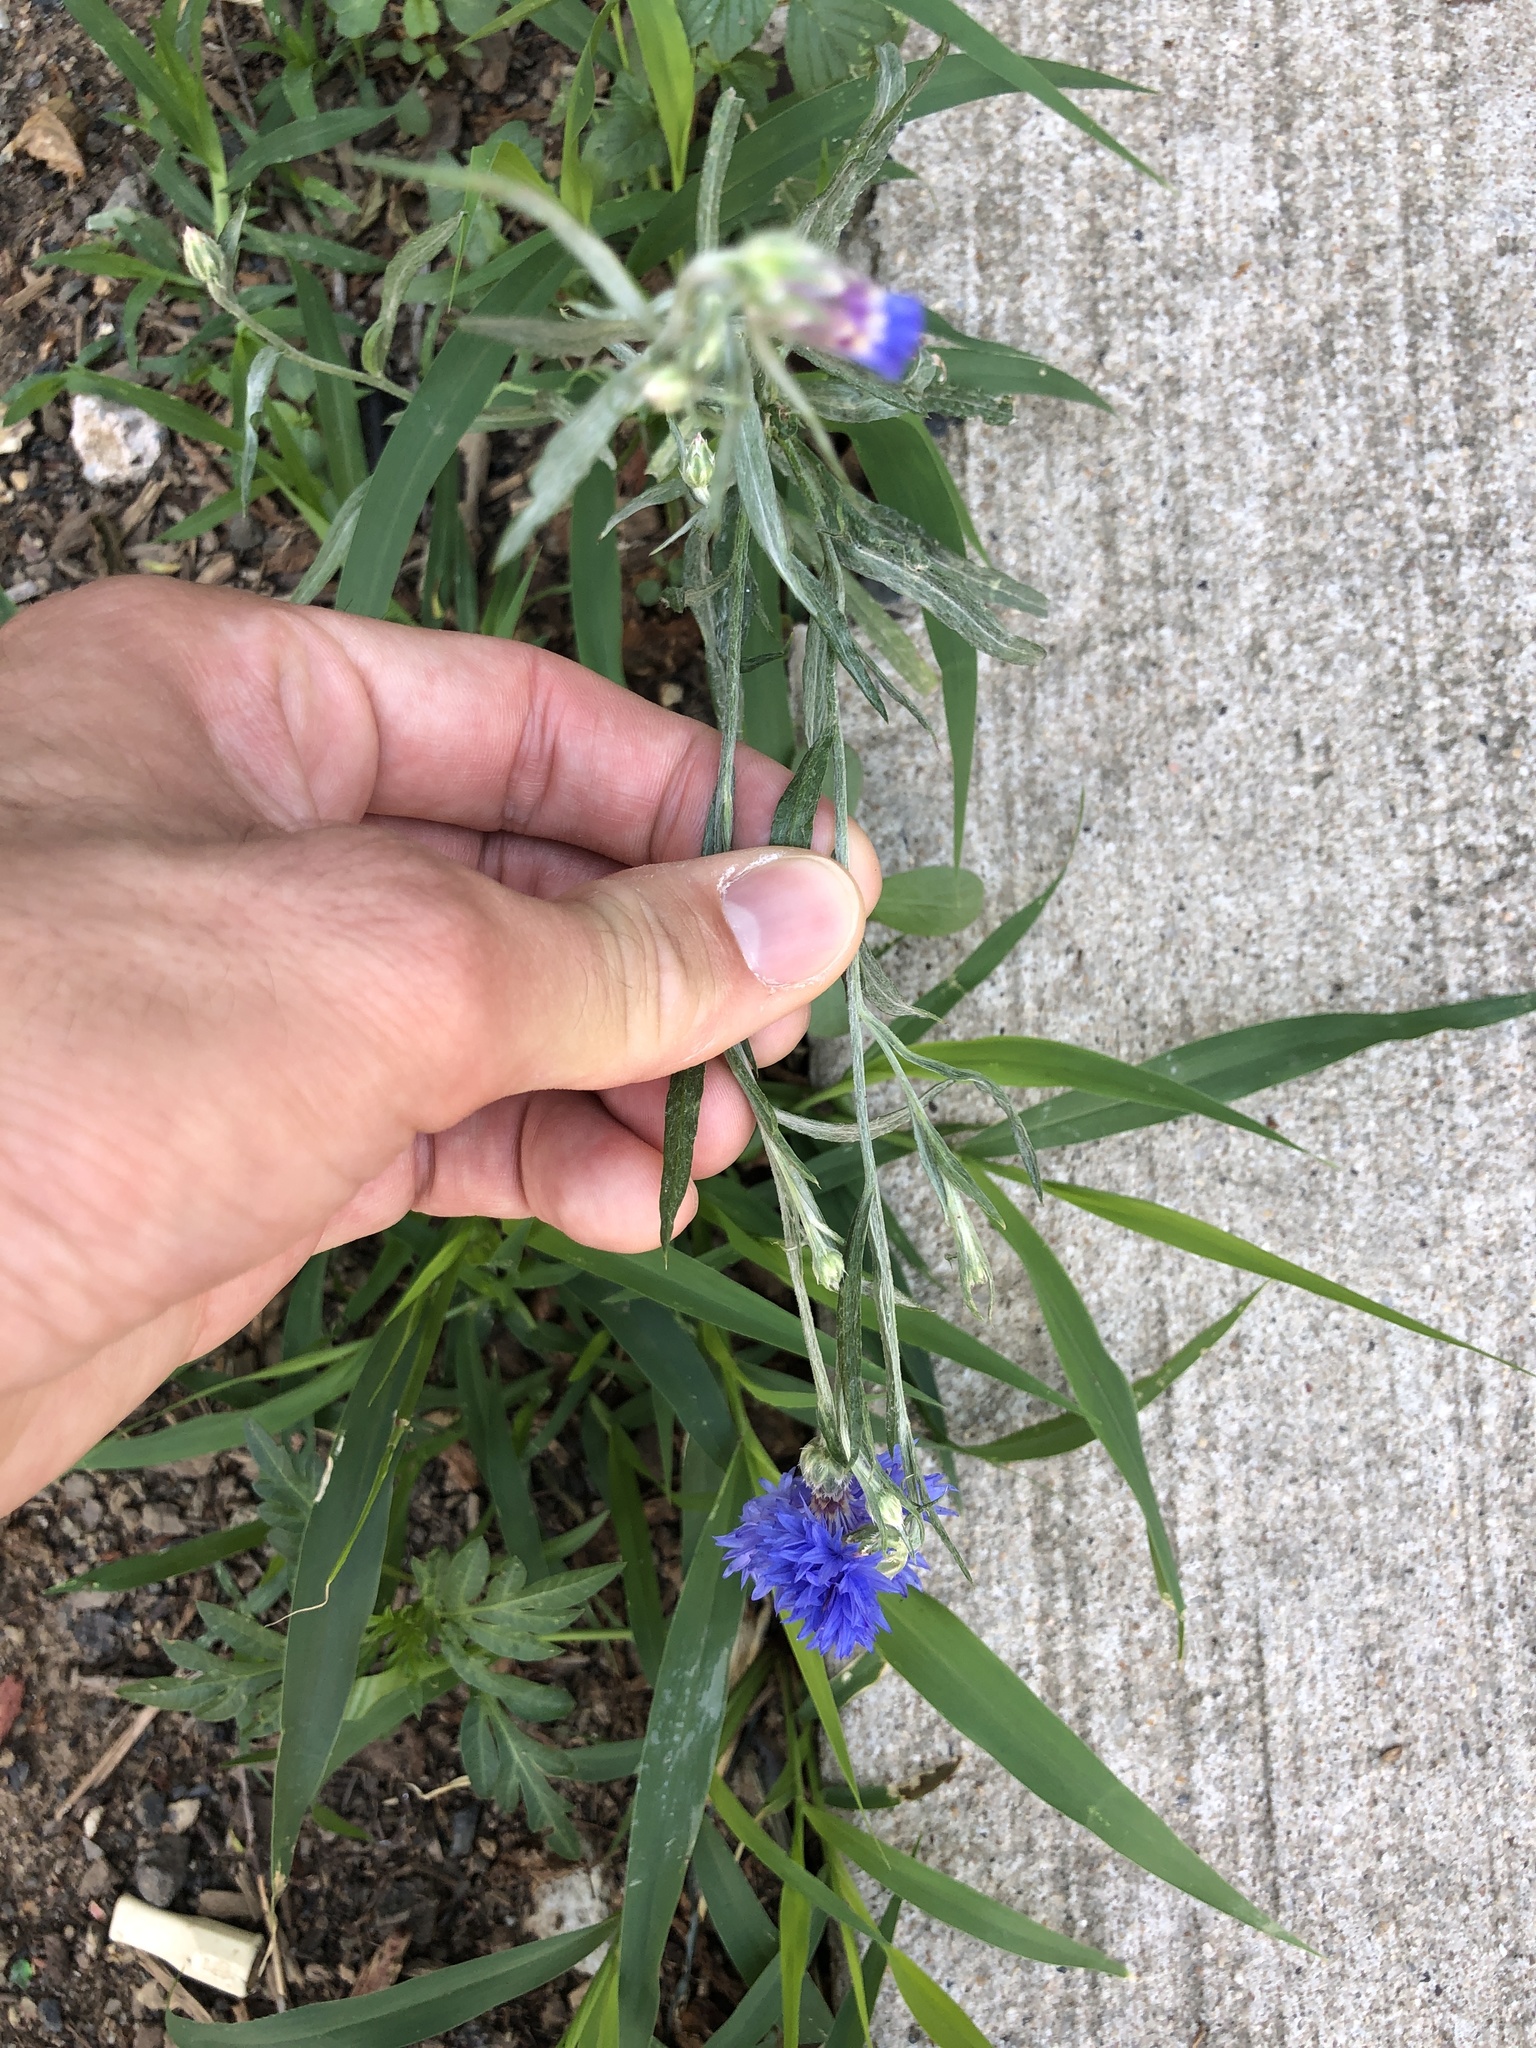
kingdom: Plantae
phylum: Tracheophyta
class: Magnoliopsida
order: Asterales
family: Asteraceae
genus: Centaurea
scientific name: Centaurea cyanus
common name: Cornflower
